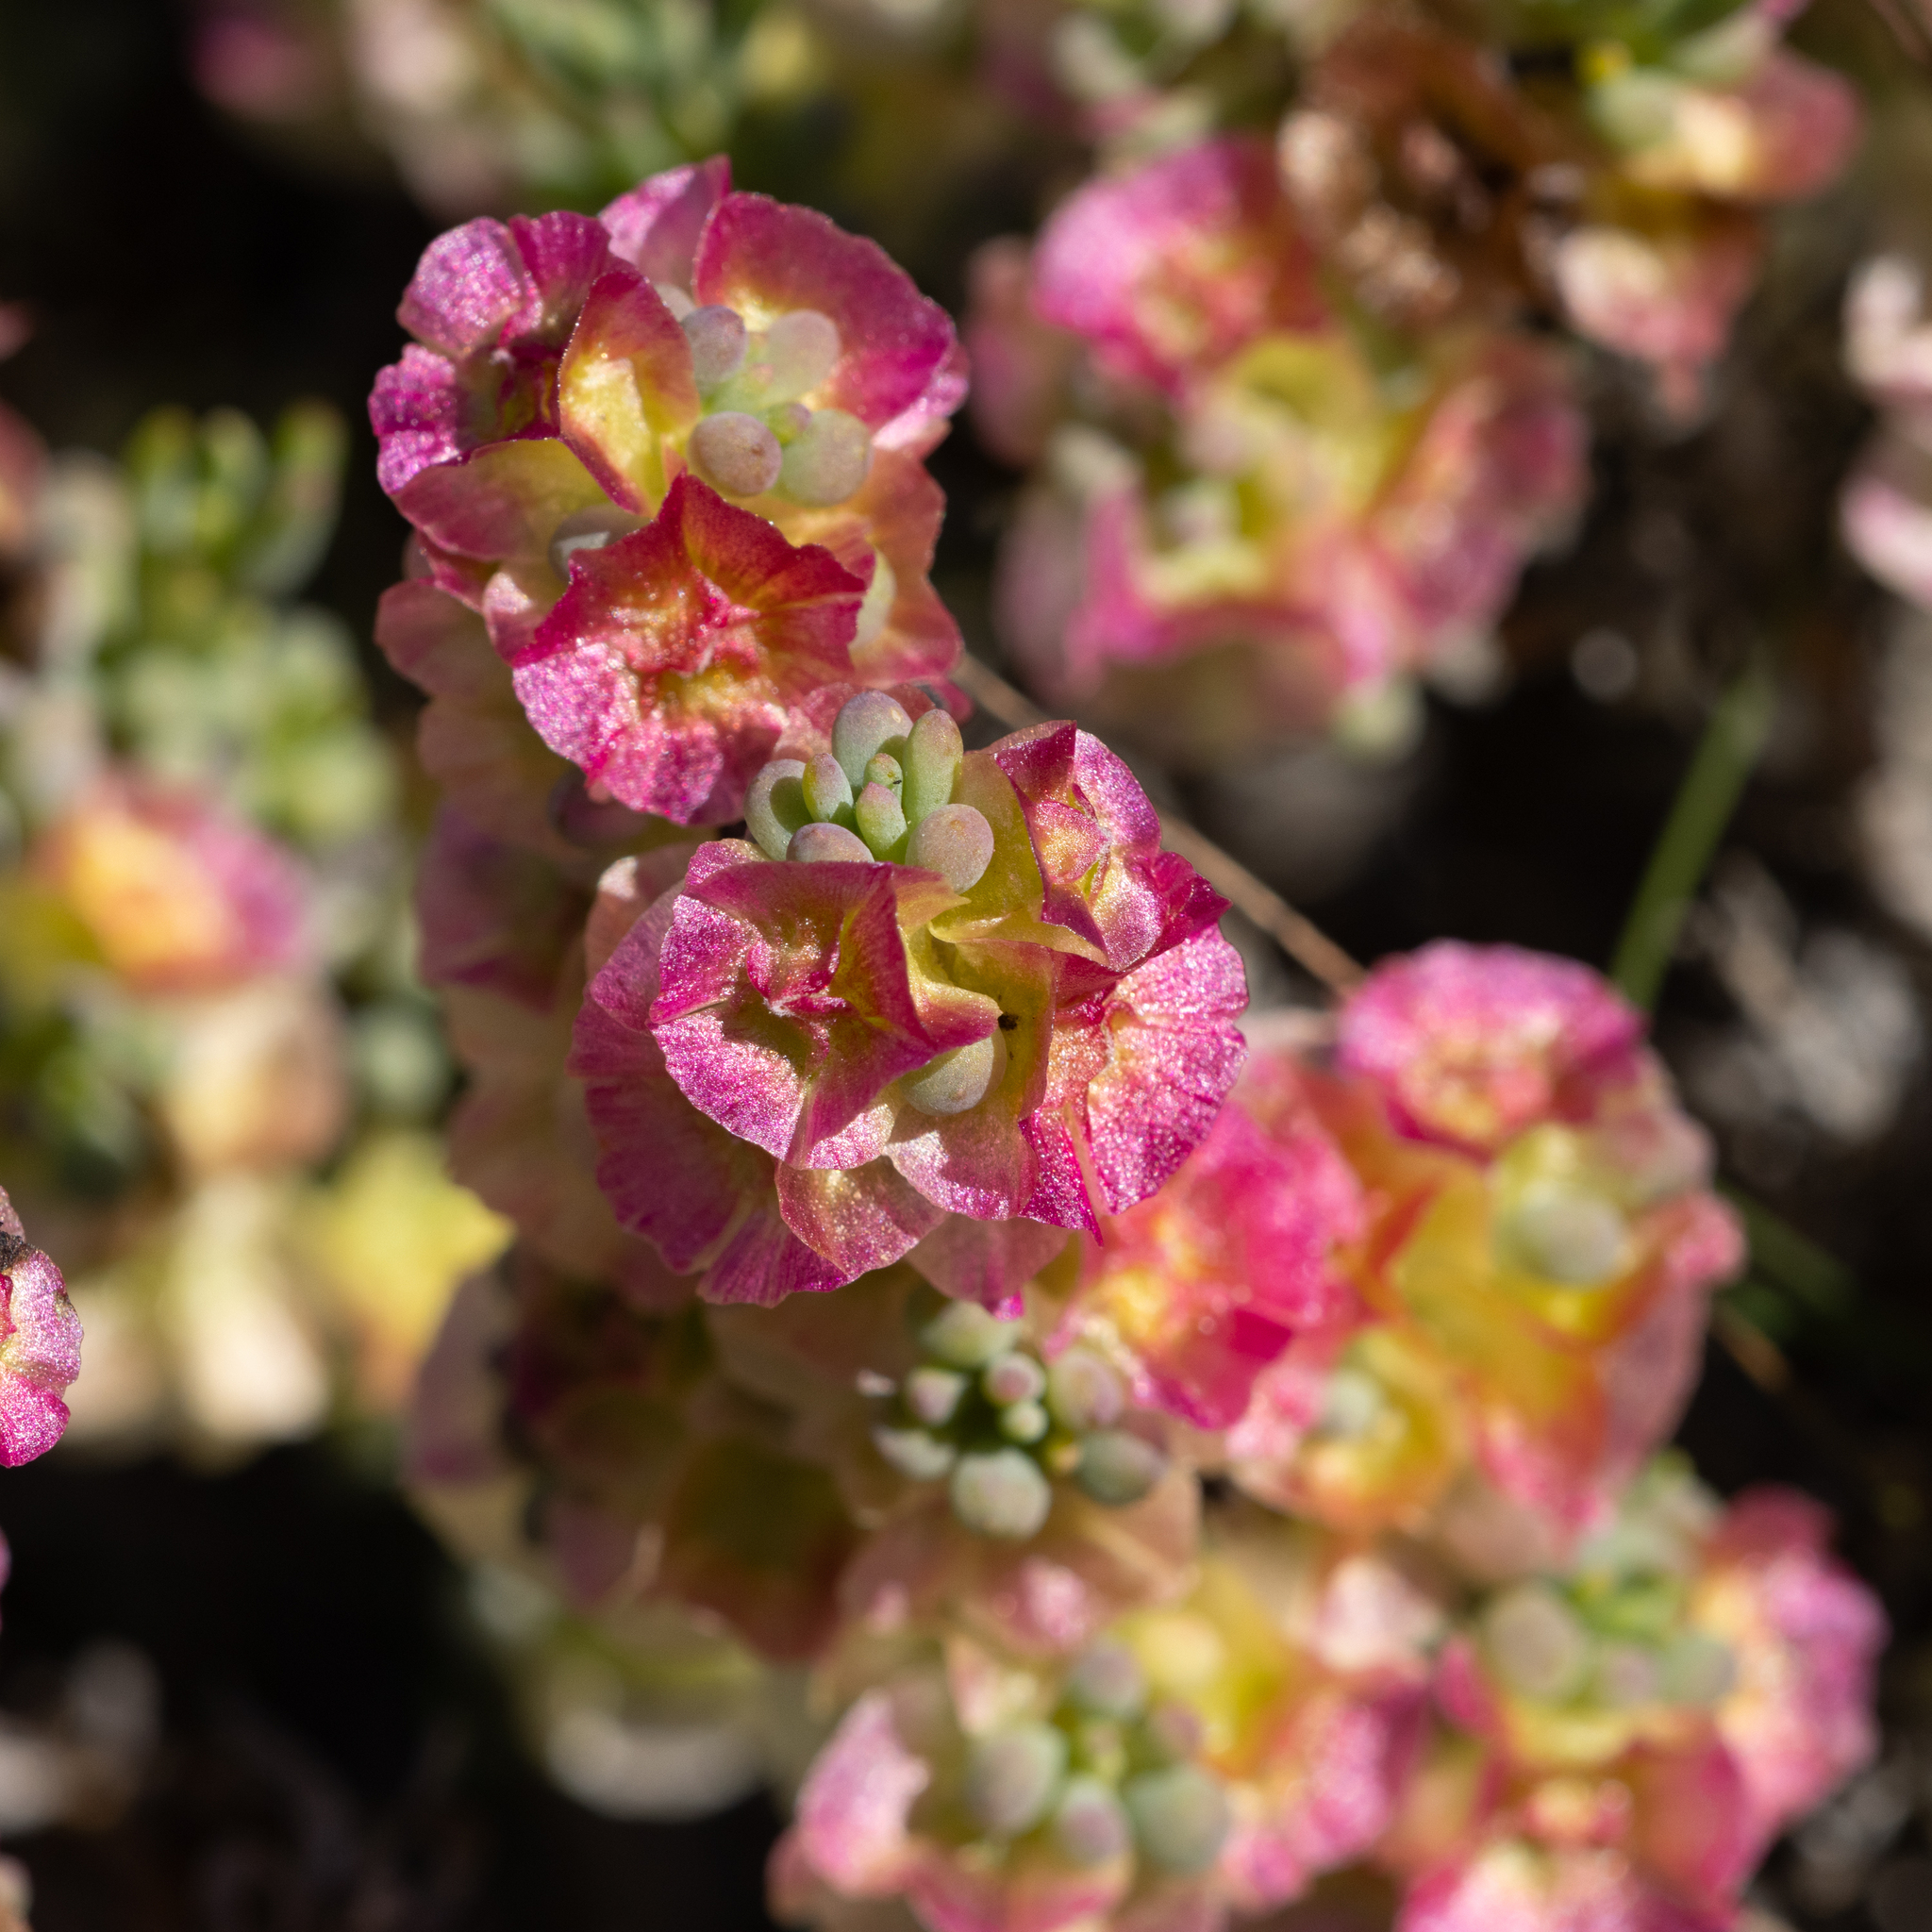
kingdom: Plantae
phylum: Tracheophyta
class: Magnoliopsida
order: Caryophyllales
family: Amaranthaceae
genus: Maireana
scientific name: Maireana erioclada
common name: Rosy bluebush
